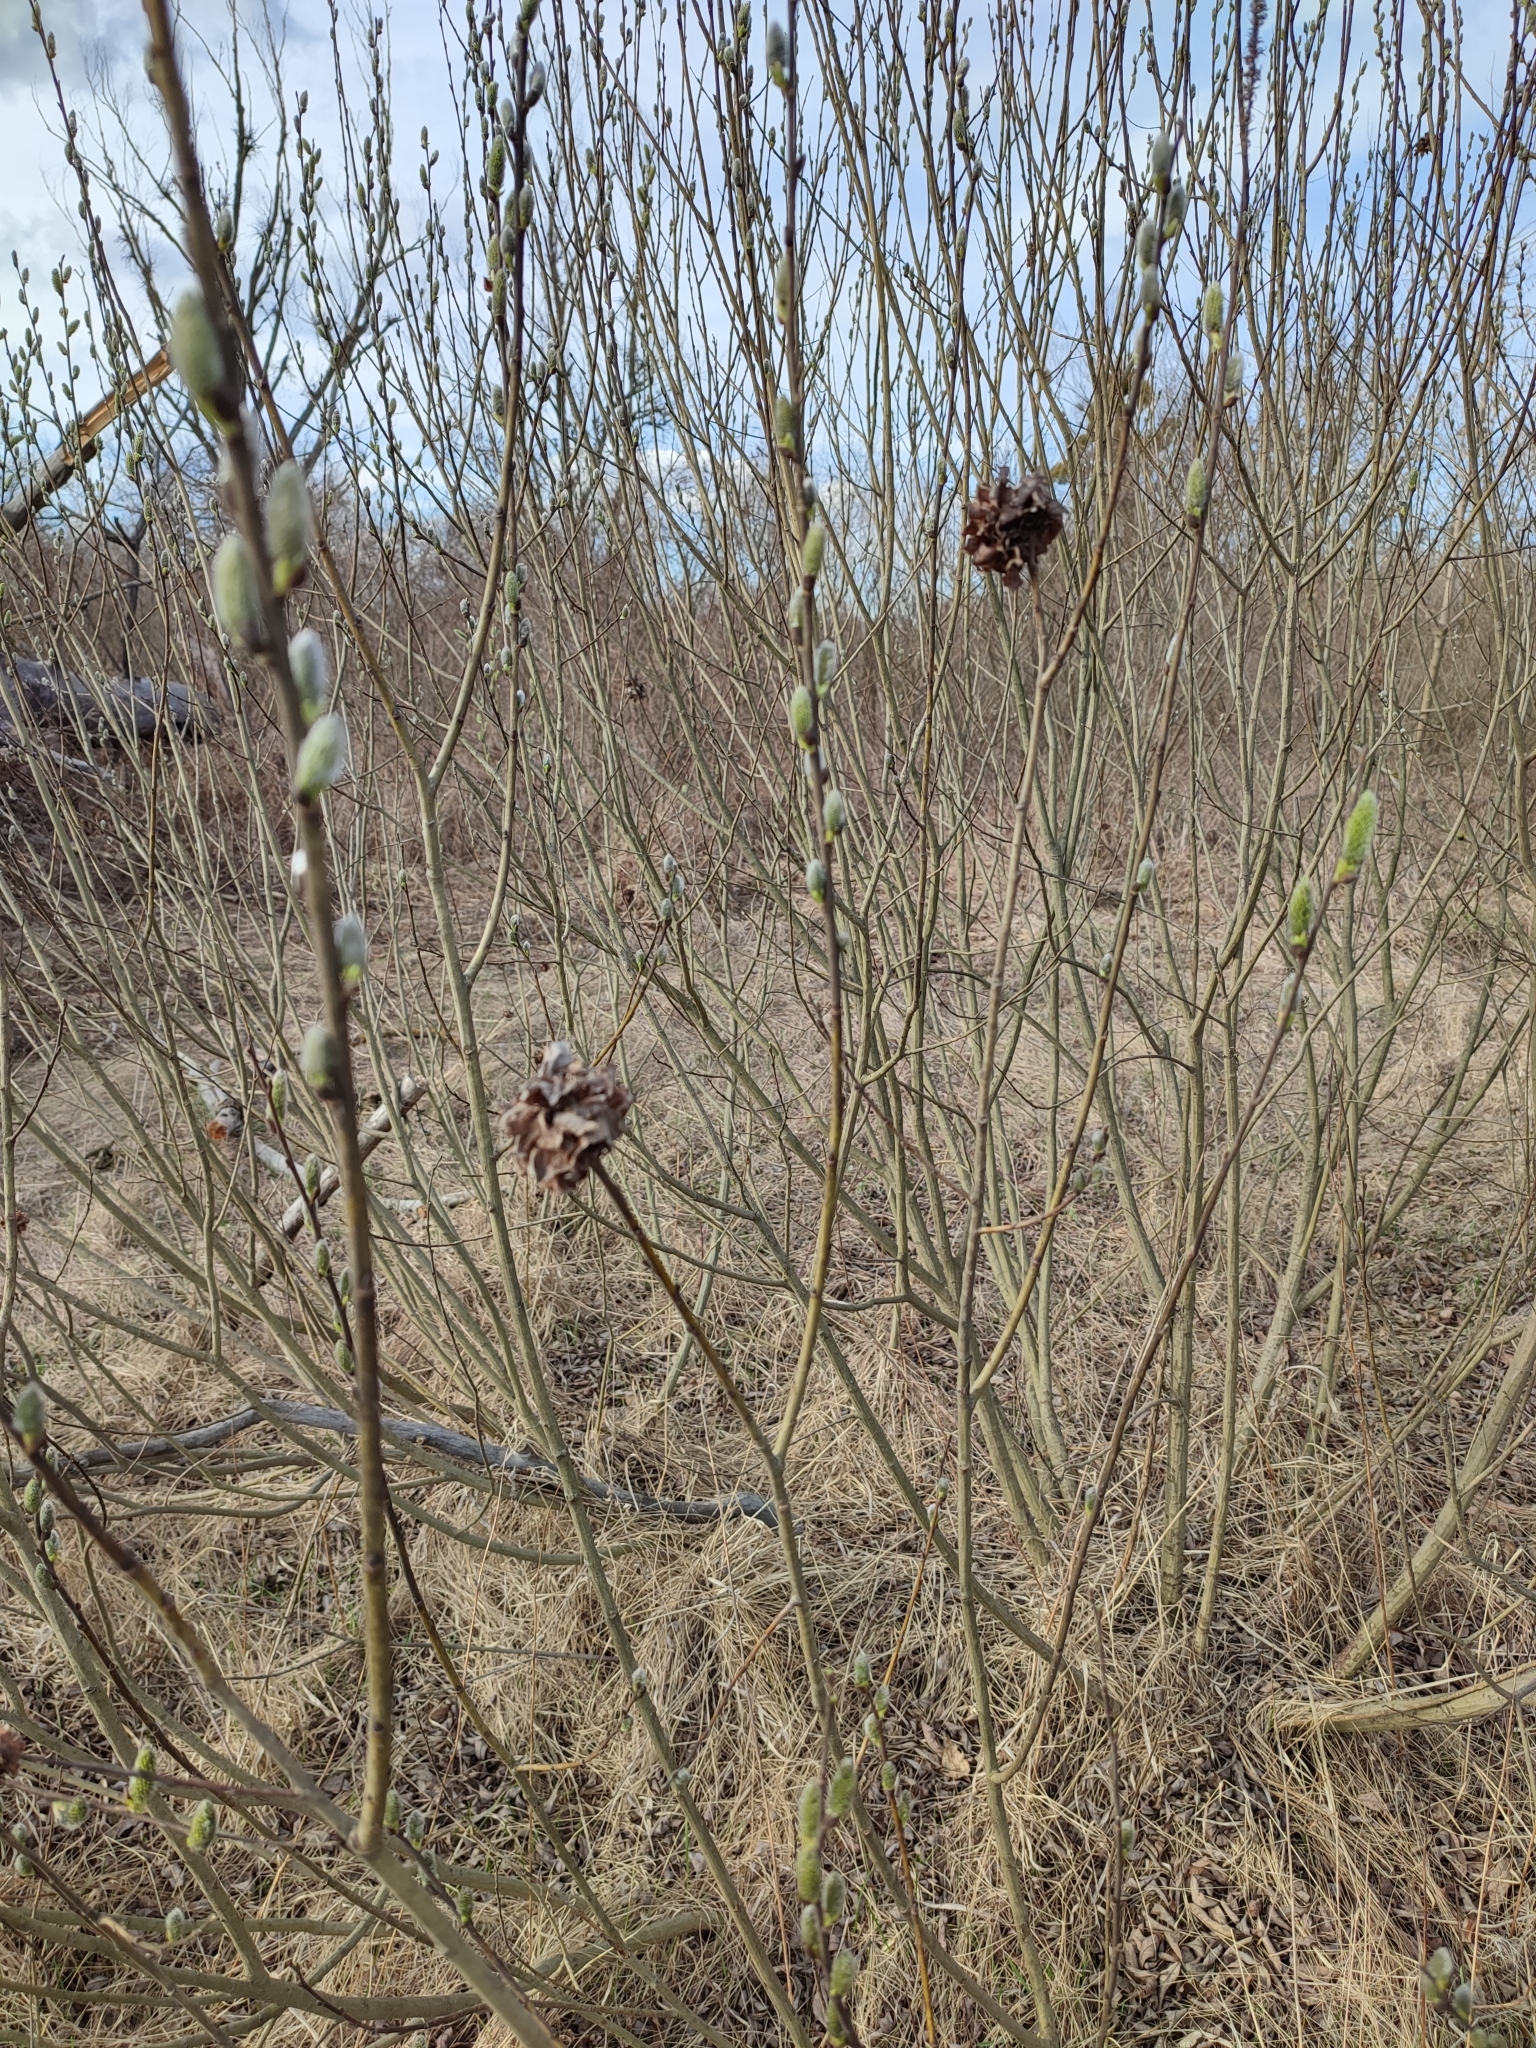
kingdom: Animalia
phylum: Arthropoda
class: Insecta
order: Diptera
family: Cecidomyiidae
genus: Rabdophaga
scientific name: Rabdophaga rosaria
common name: Willow rose gall midge
